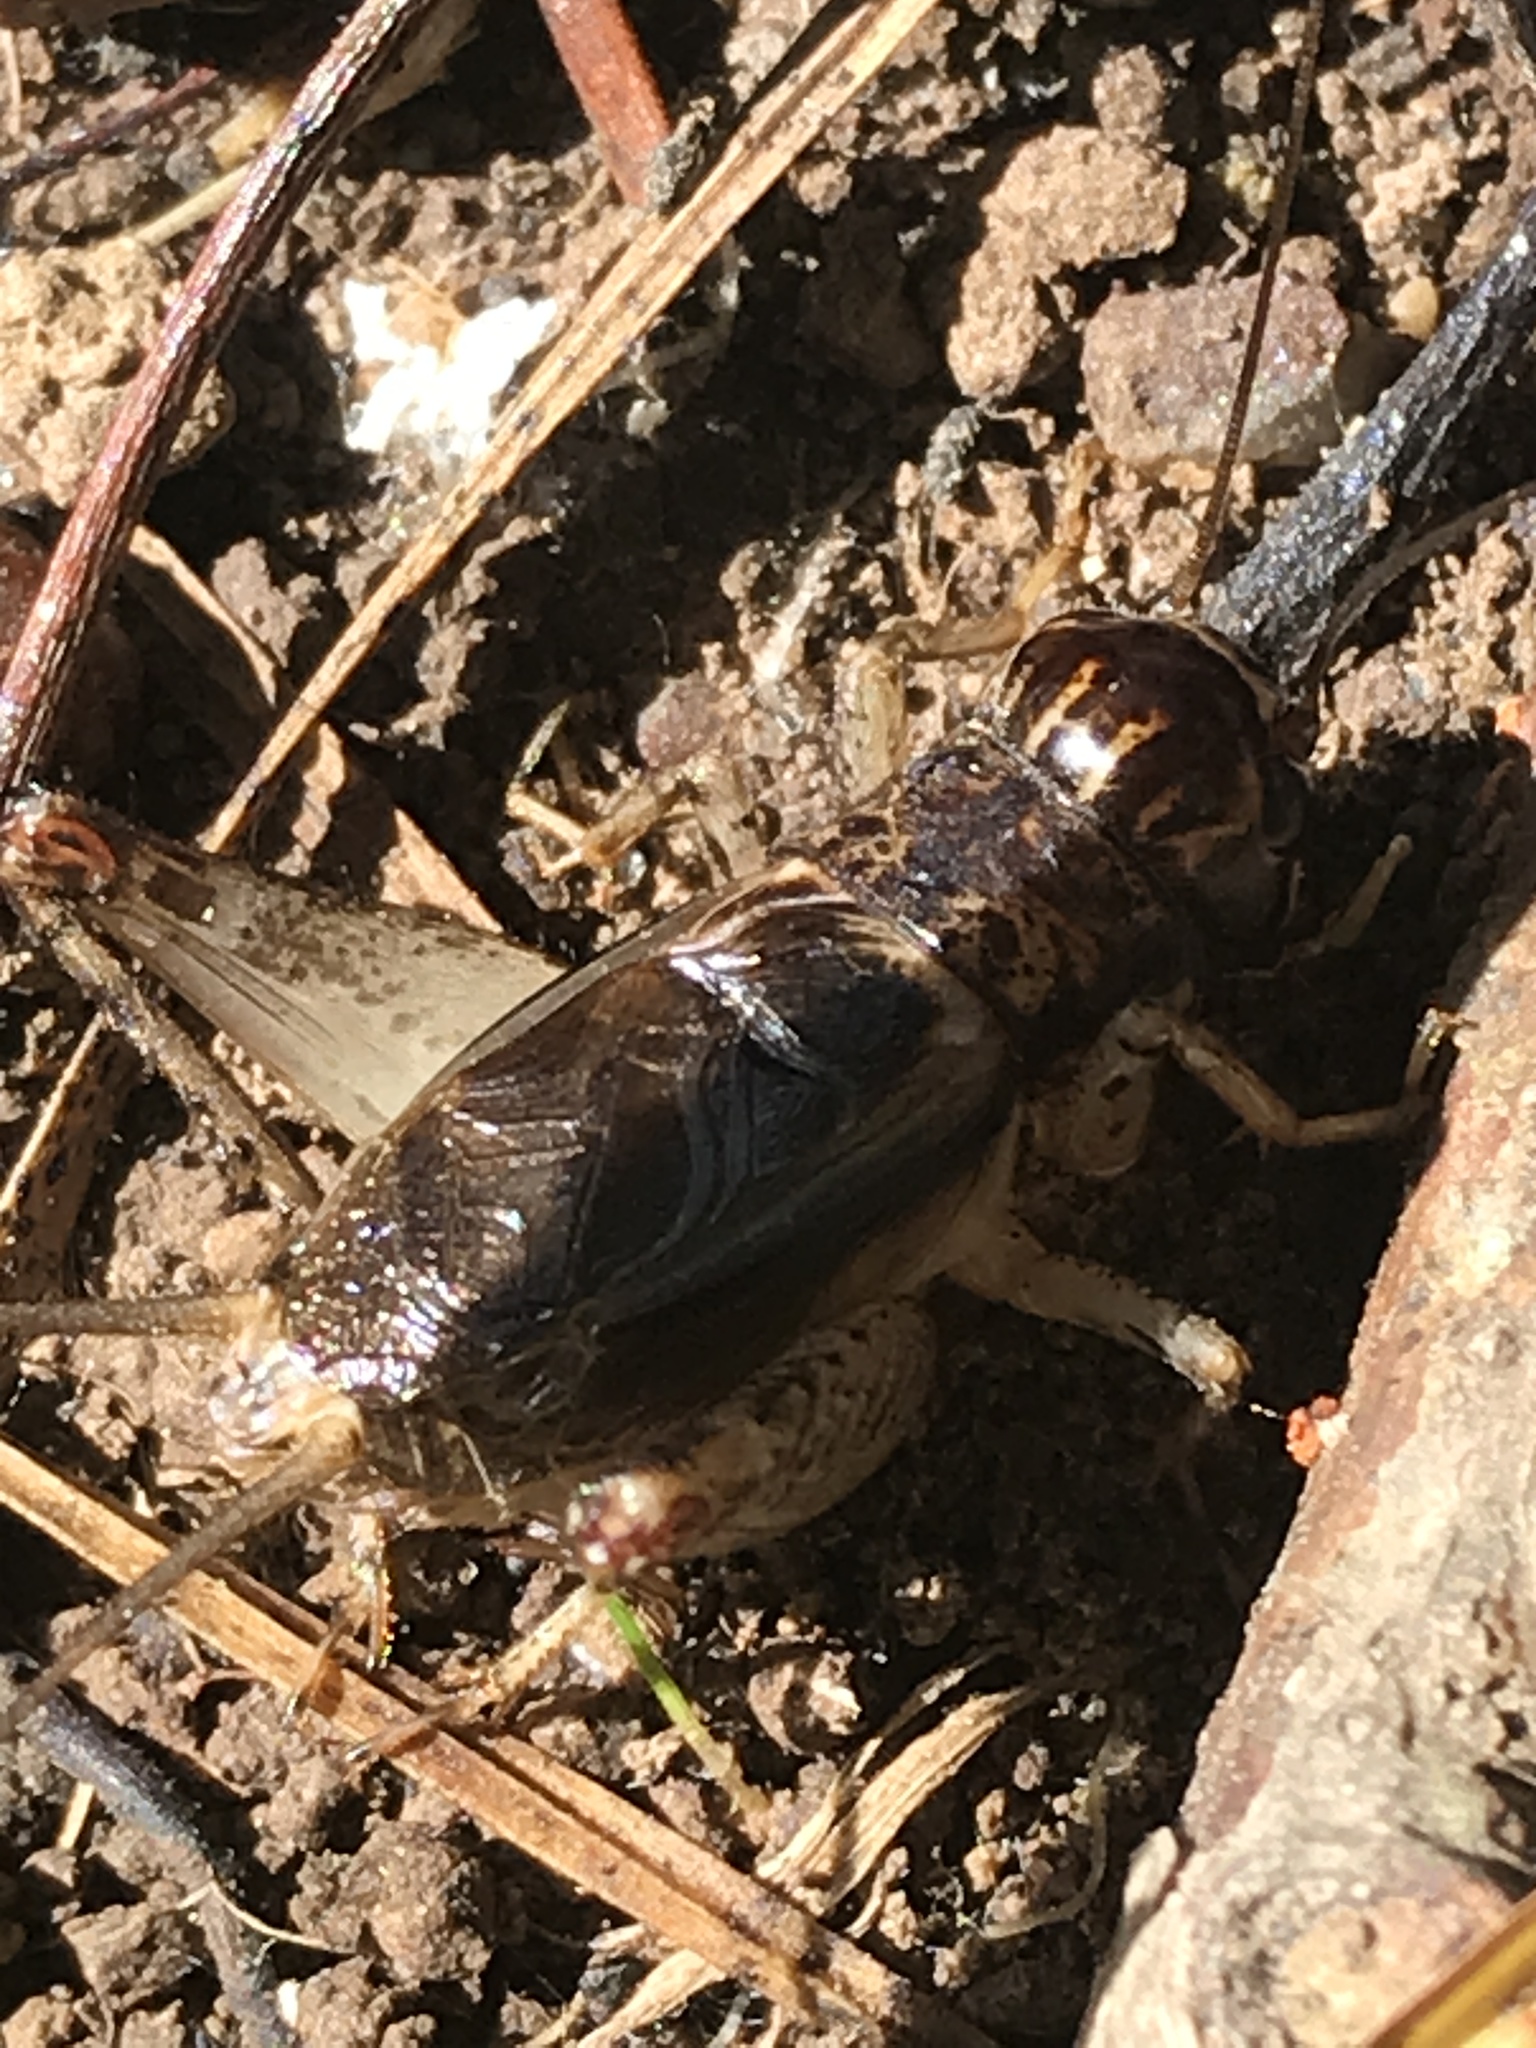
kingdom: Animalia
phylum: Arthropoda
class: Insecta
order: Orthoptera
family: Gryllidae
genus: Velarifictorus
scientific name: Velarifictorus micado
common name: Japanese burrowing cricket
